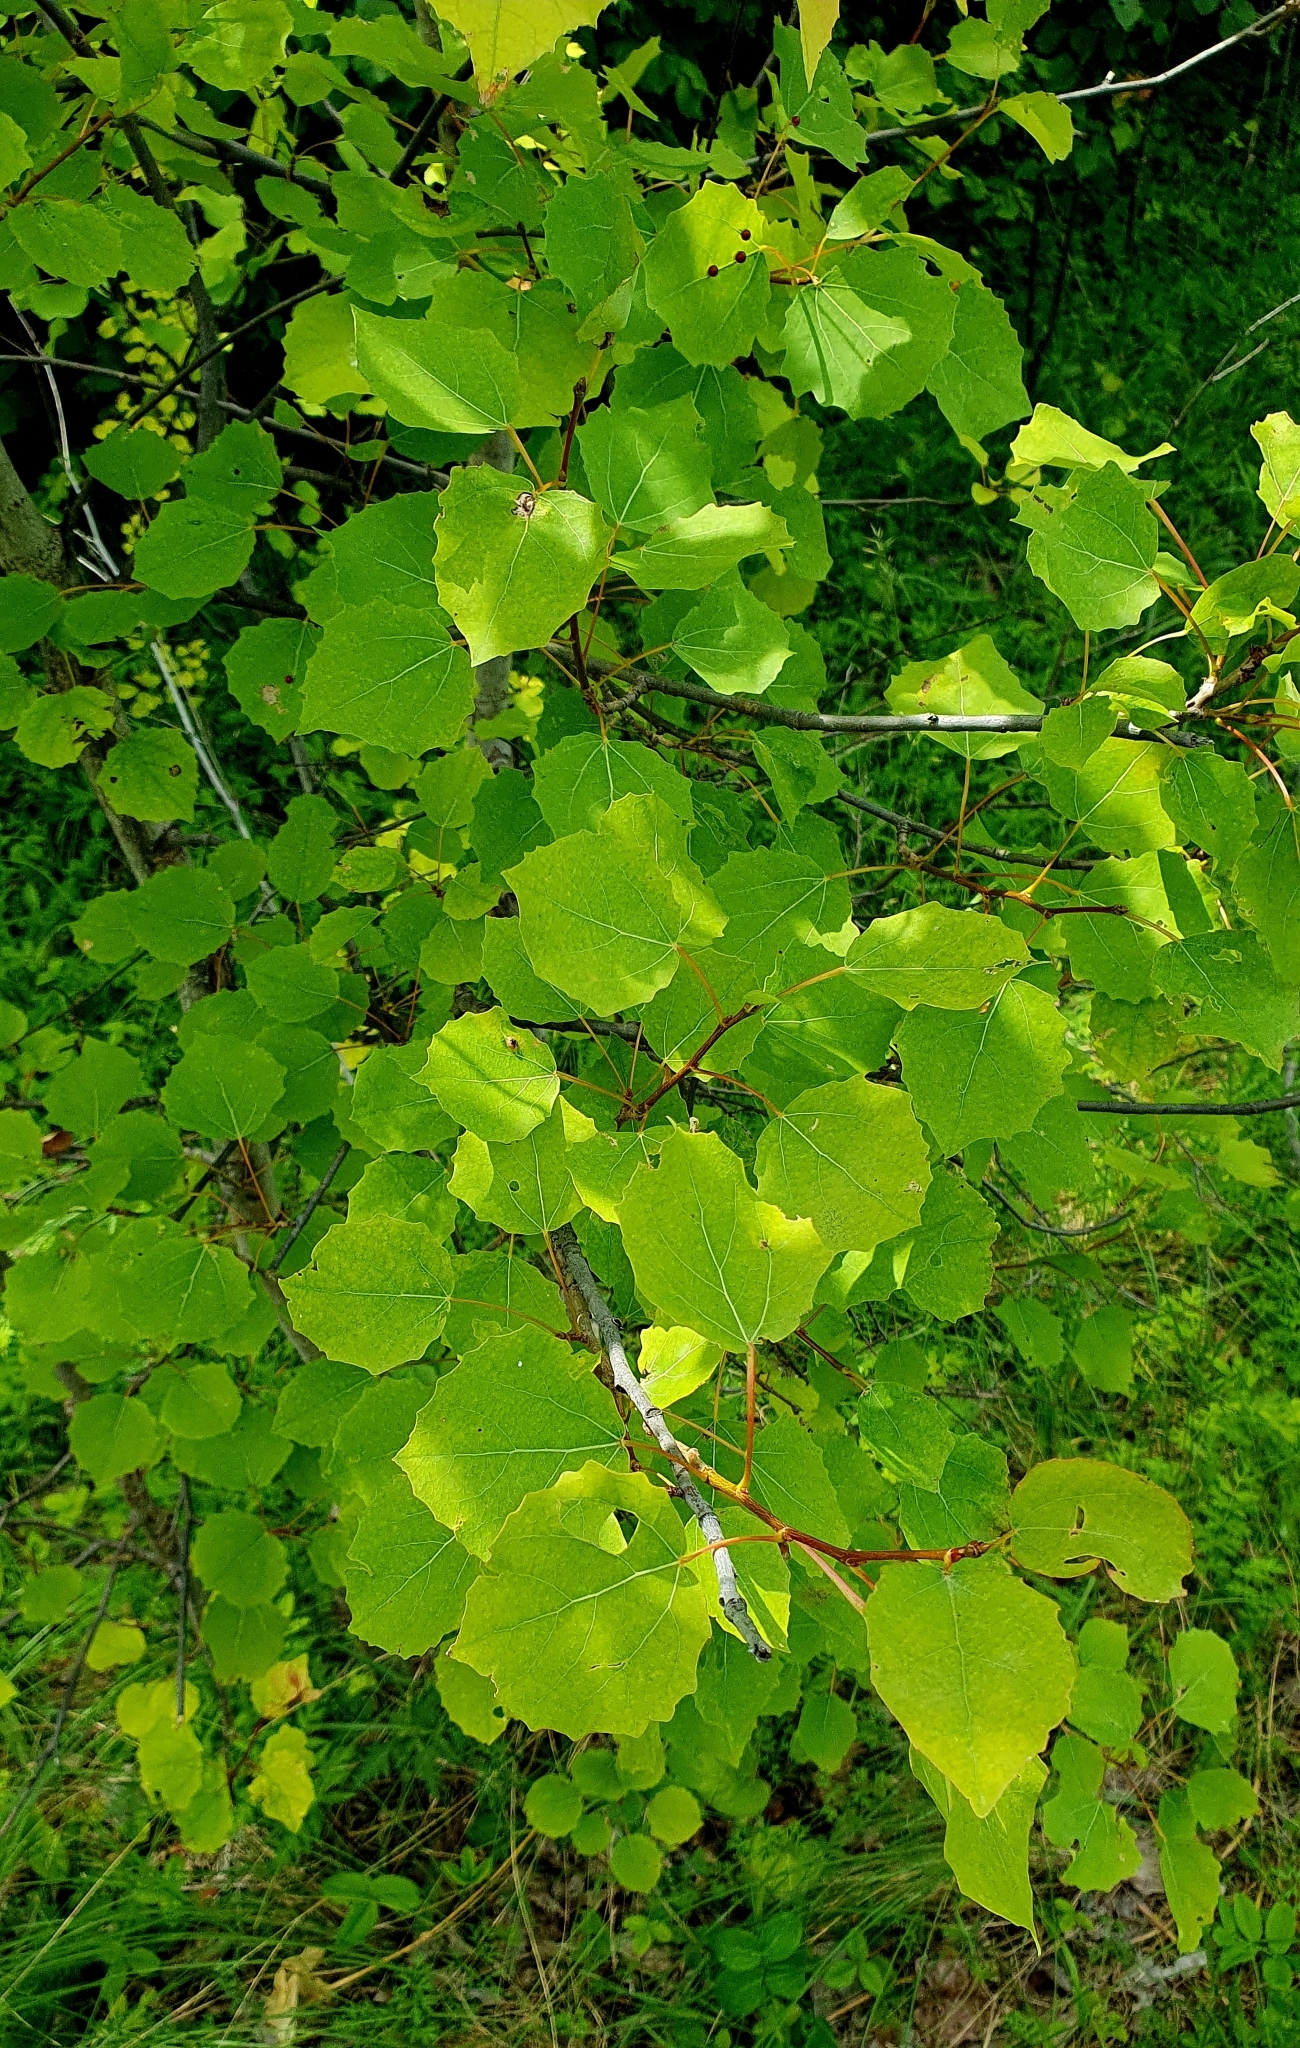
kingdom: Plantae
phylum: Tracheophyta
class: Magnoliopsida
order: Malpighiales
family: Salicaceae
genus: Populus
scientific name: Populus tremula
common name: European aspen
